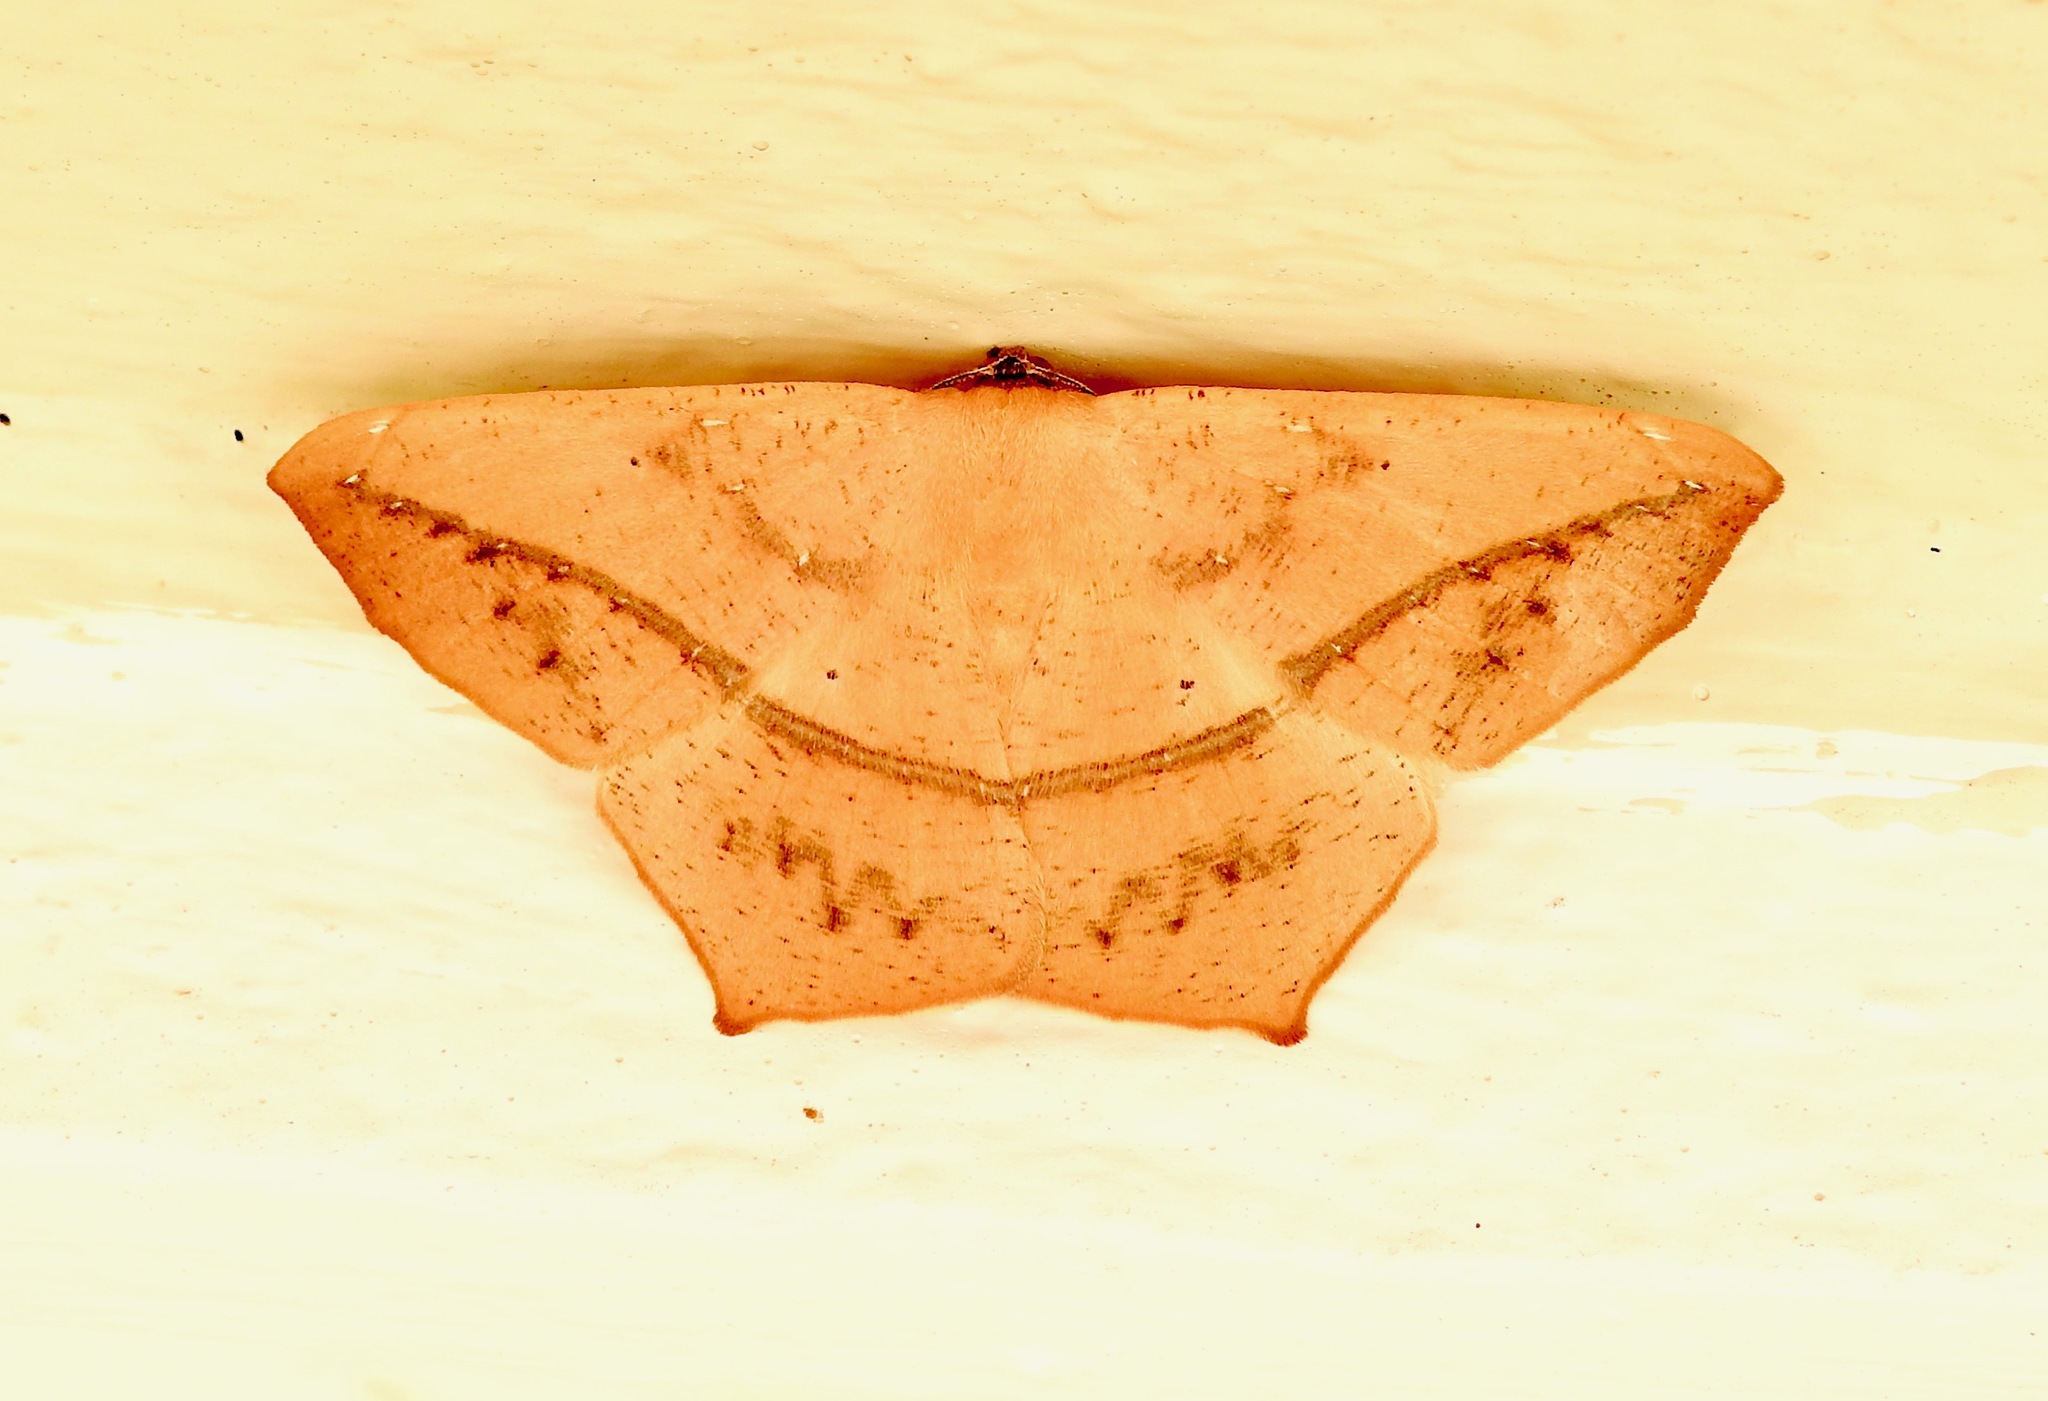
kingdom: Animalia
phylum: Arthropoda
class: Insecta
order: Lepidoptera
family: Geometridae
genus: Prochoerodes
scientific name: Prochoerodes lineola
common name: Large maple spanworm
